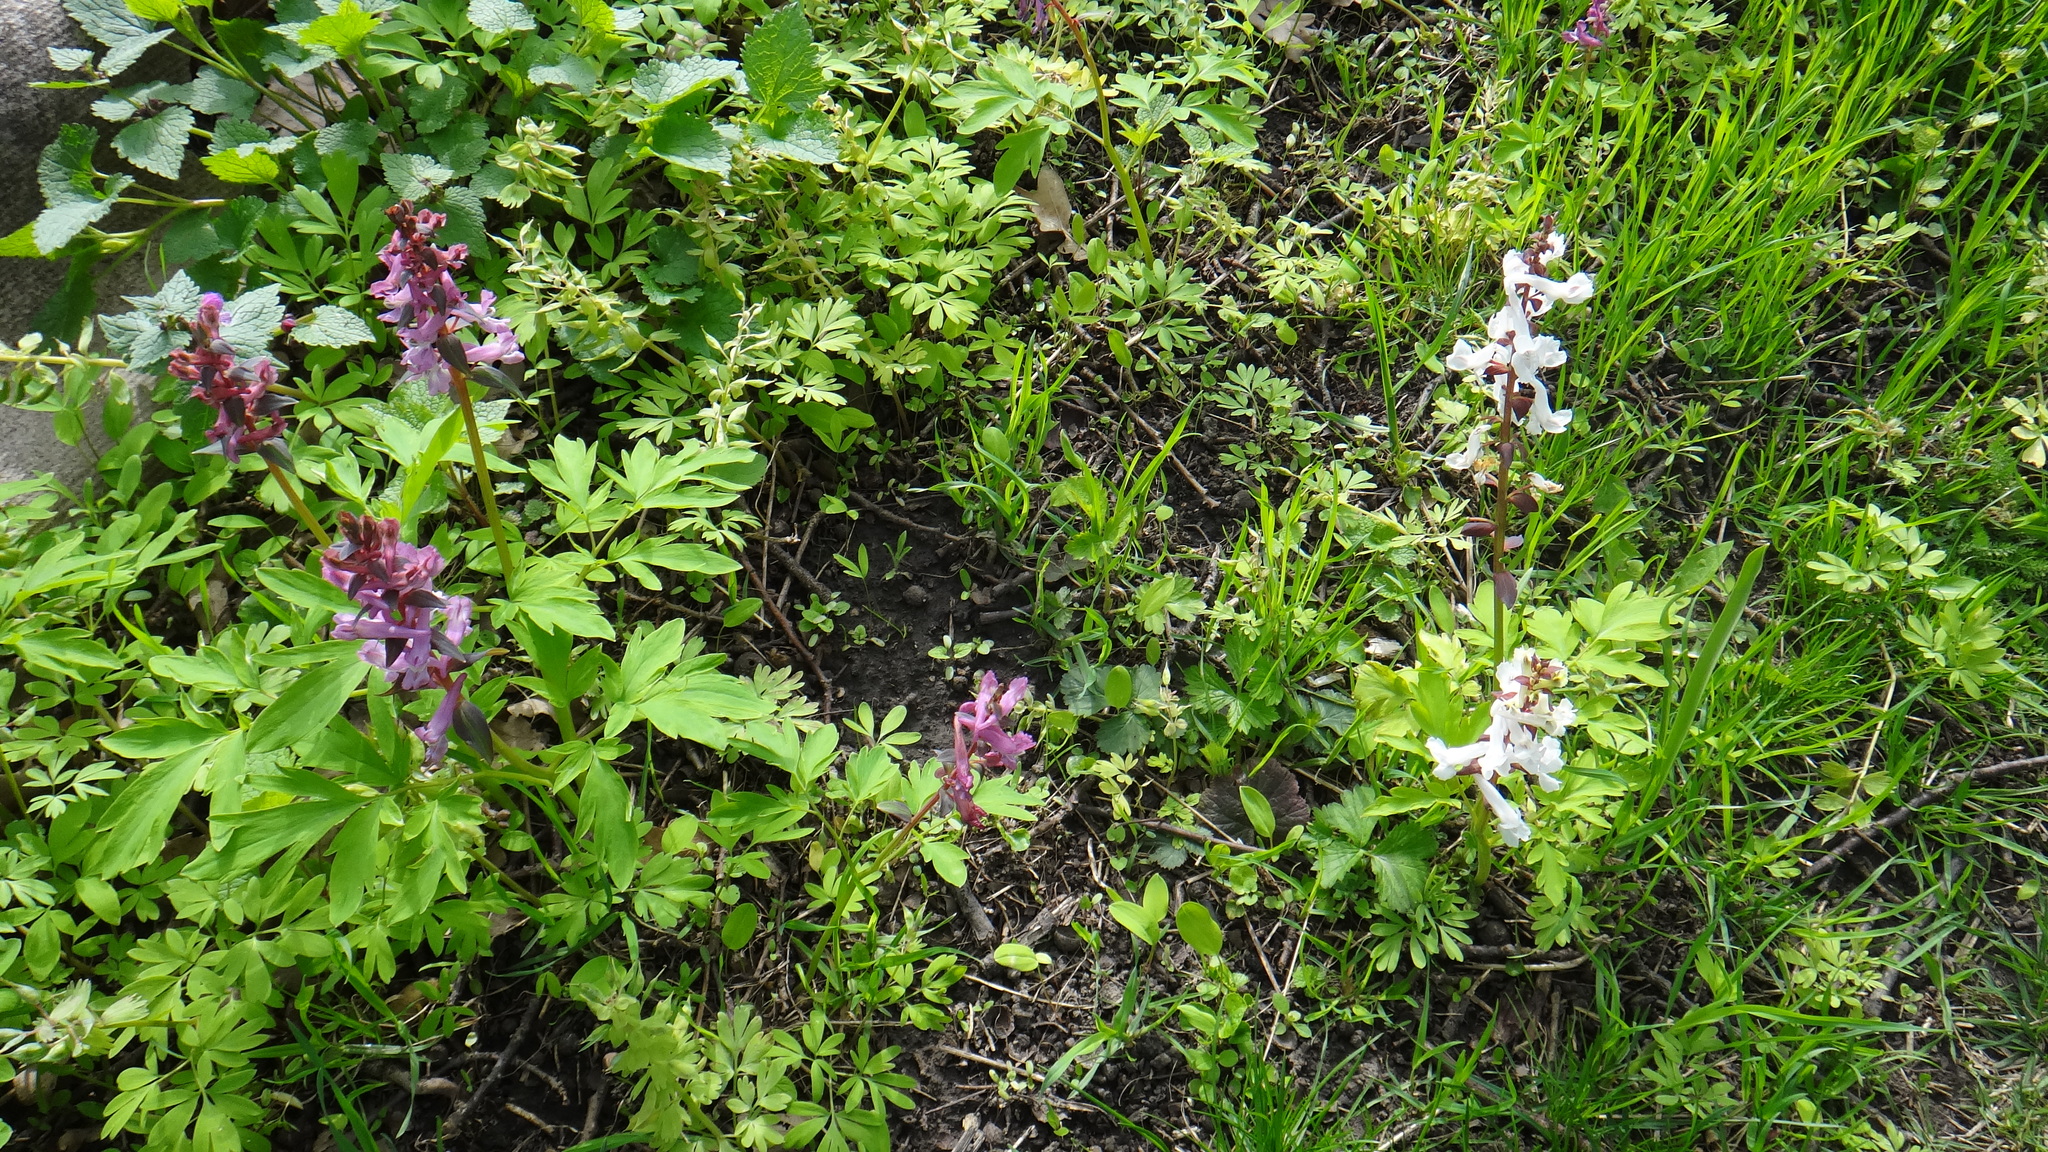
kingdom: Plantae
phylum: Tracheophyta
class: Magnoliopsida
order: Ranunculales
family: Papaveraceae
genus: Corydalis
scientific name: Corydalis cava
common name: Hollowroot
